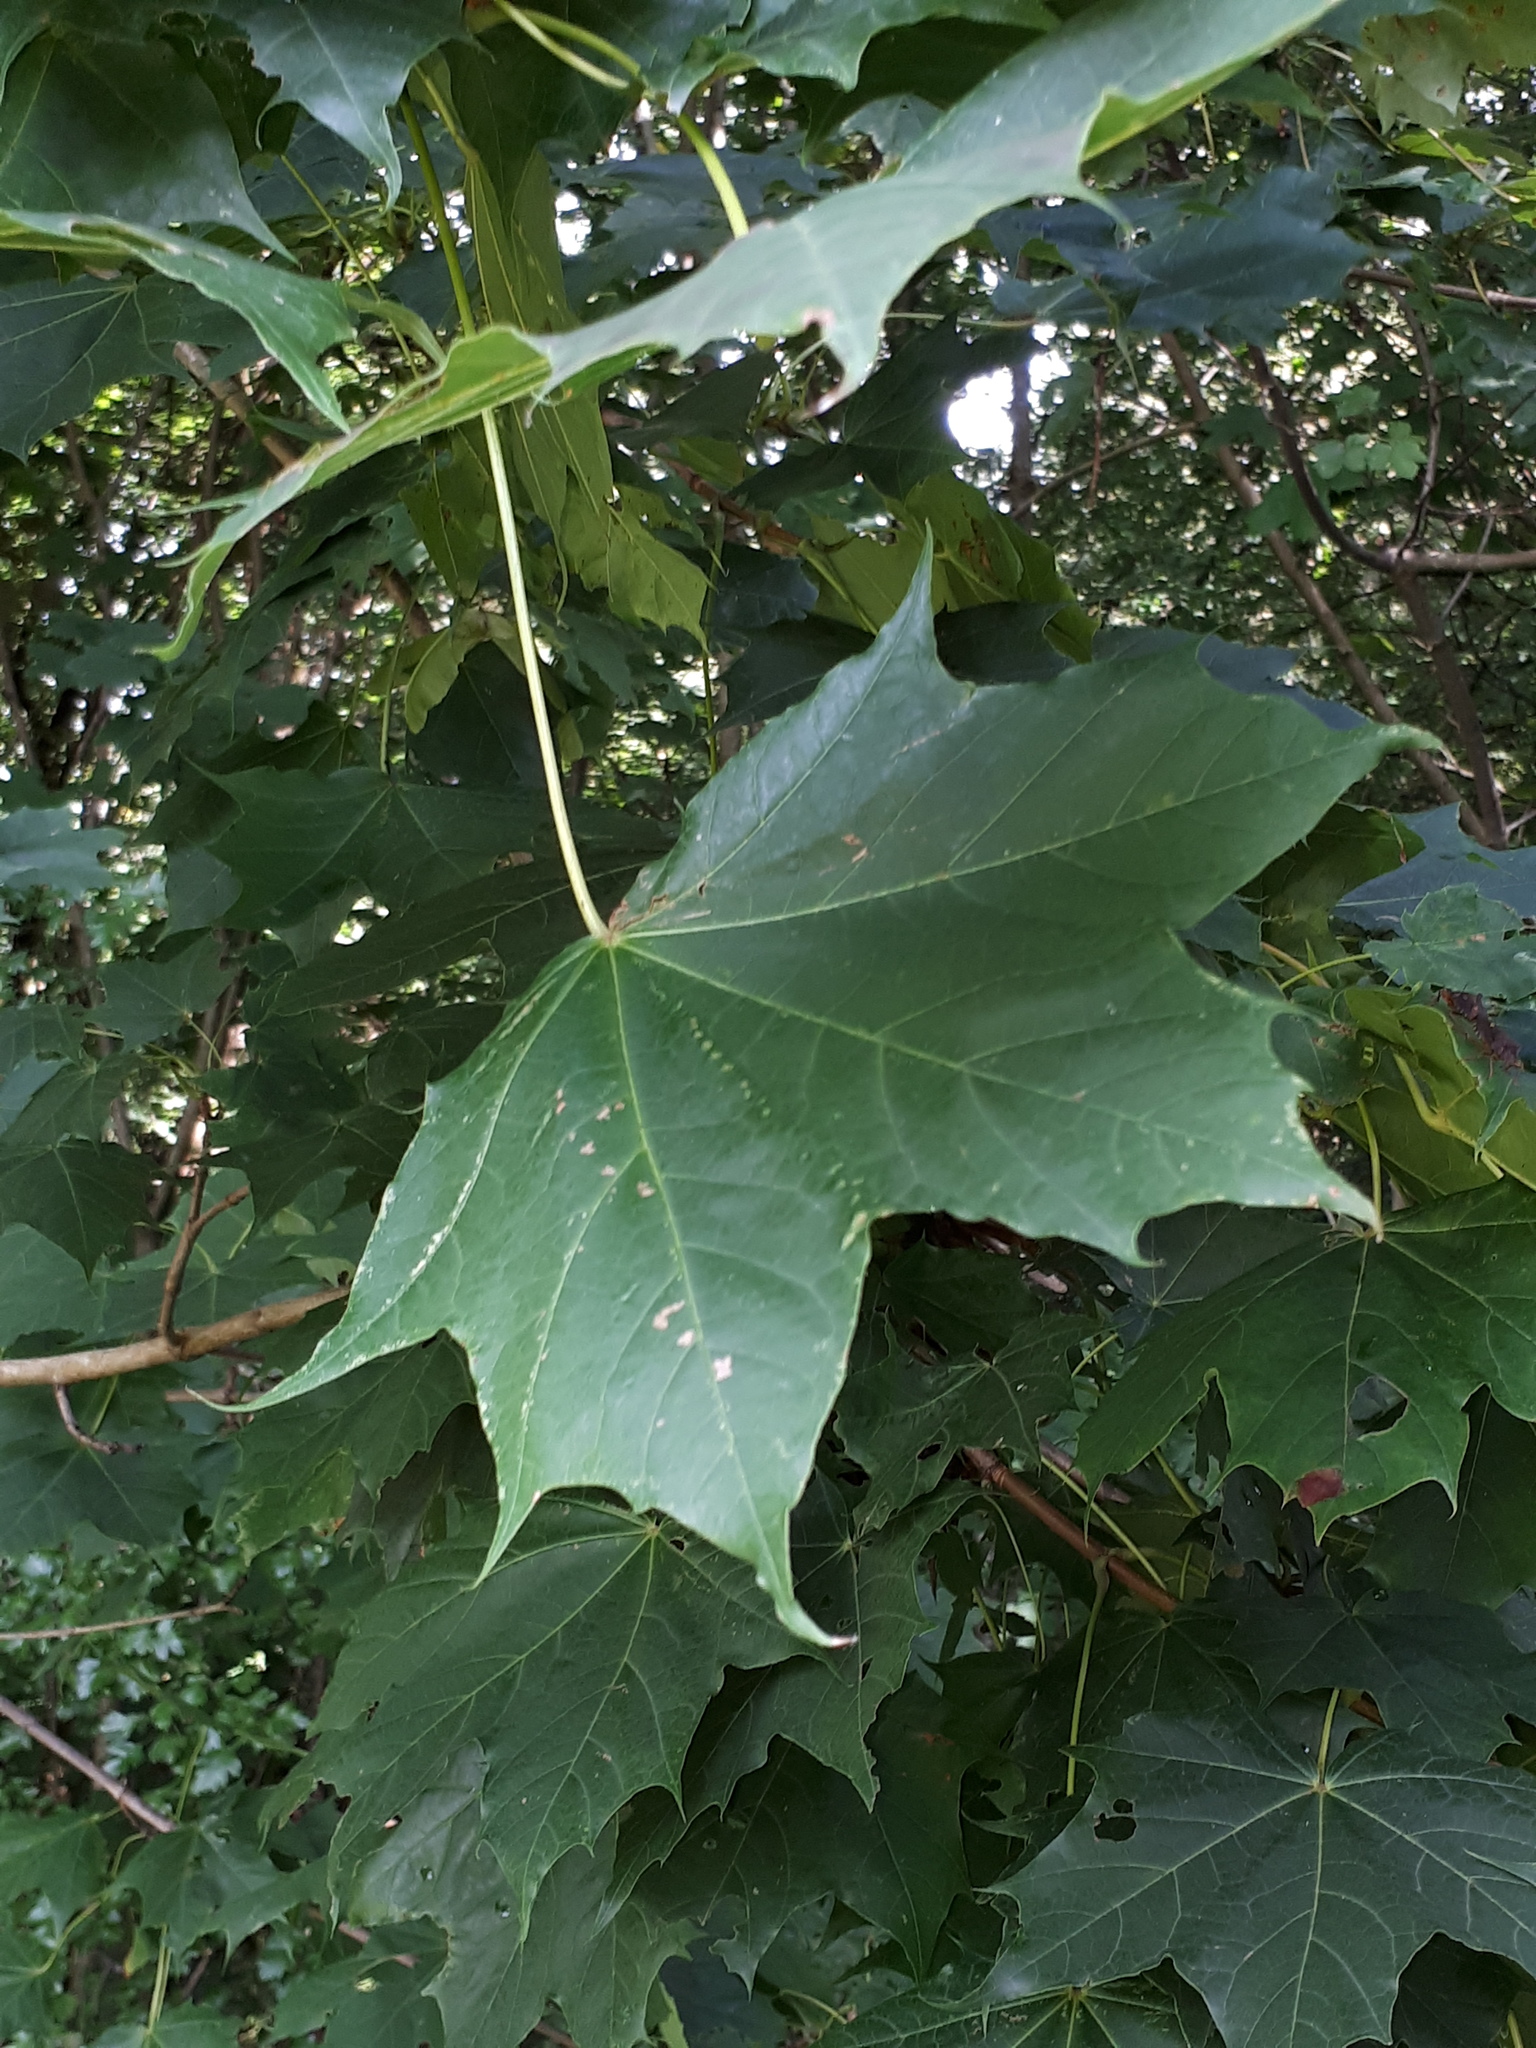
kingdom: Plantae
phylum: Tracheophyta
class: Magnoliopsida
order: Sapindales
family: Sapindaceae
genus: Acer
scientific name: Acer platanoides
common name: Norway maple
